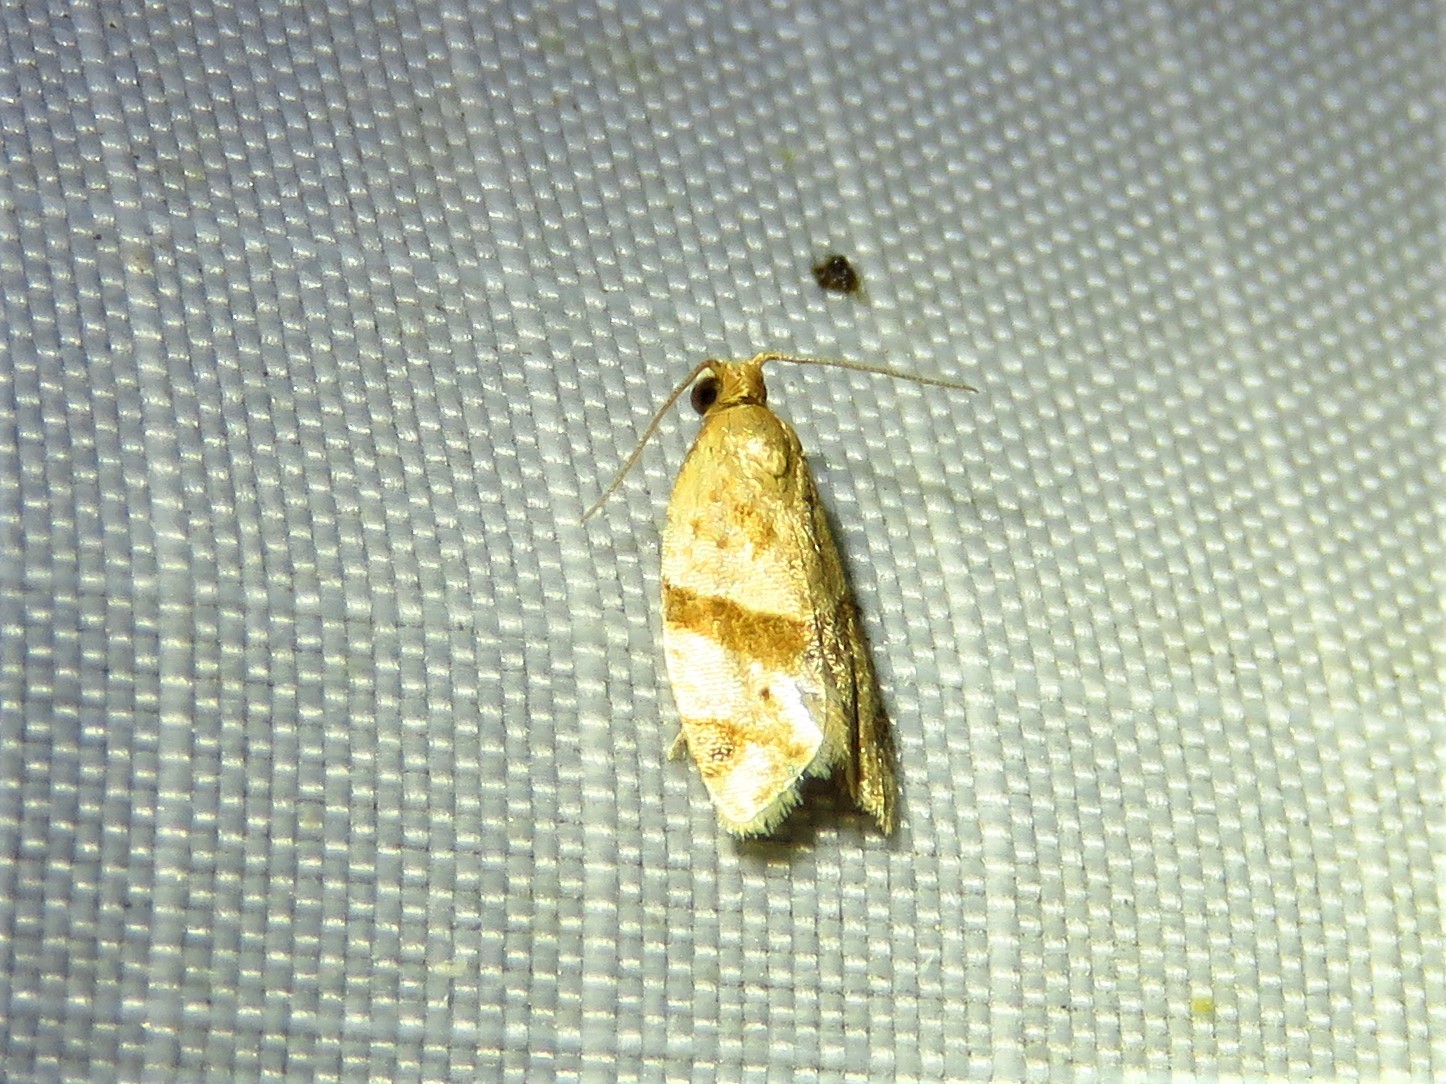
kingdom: Animalia
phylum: Arthropoda
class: Insecta
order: Lepidoptera
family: Tortricidae
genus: Clepsis
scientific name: Clepsis peritana
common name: Garden tortrix
